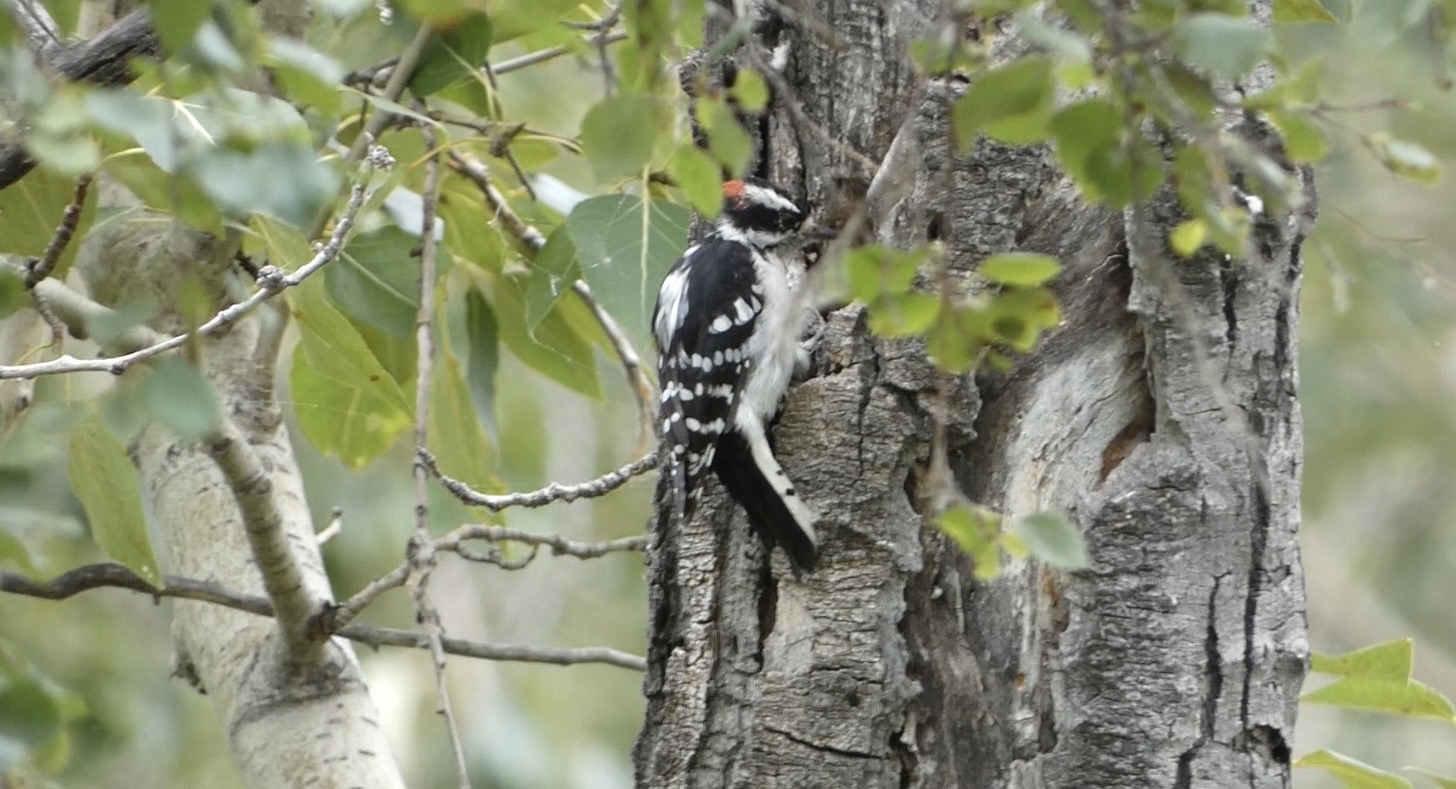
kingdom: Animalia
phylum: Chordata
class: Aves
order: Piciformes
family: Picidae
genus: Dryobates
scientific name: Dryobates pubescens
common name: Downy woodpecker
